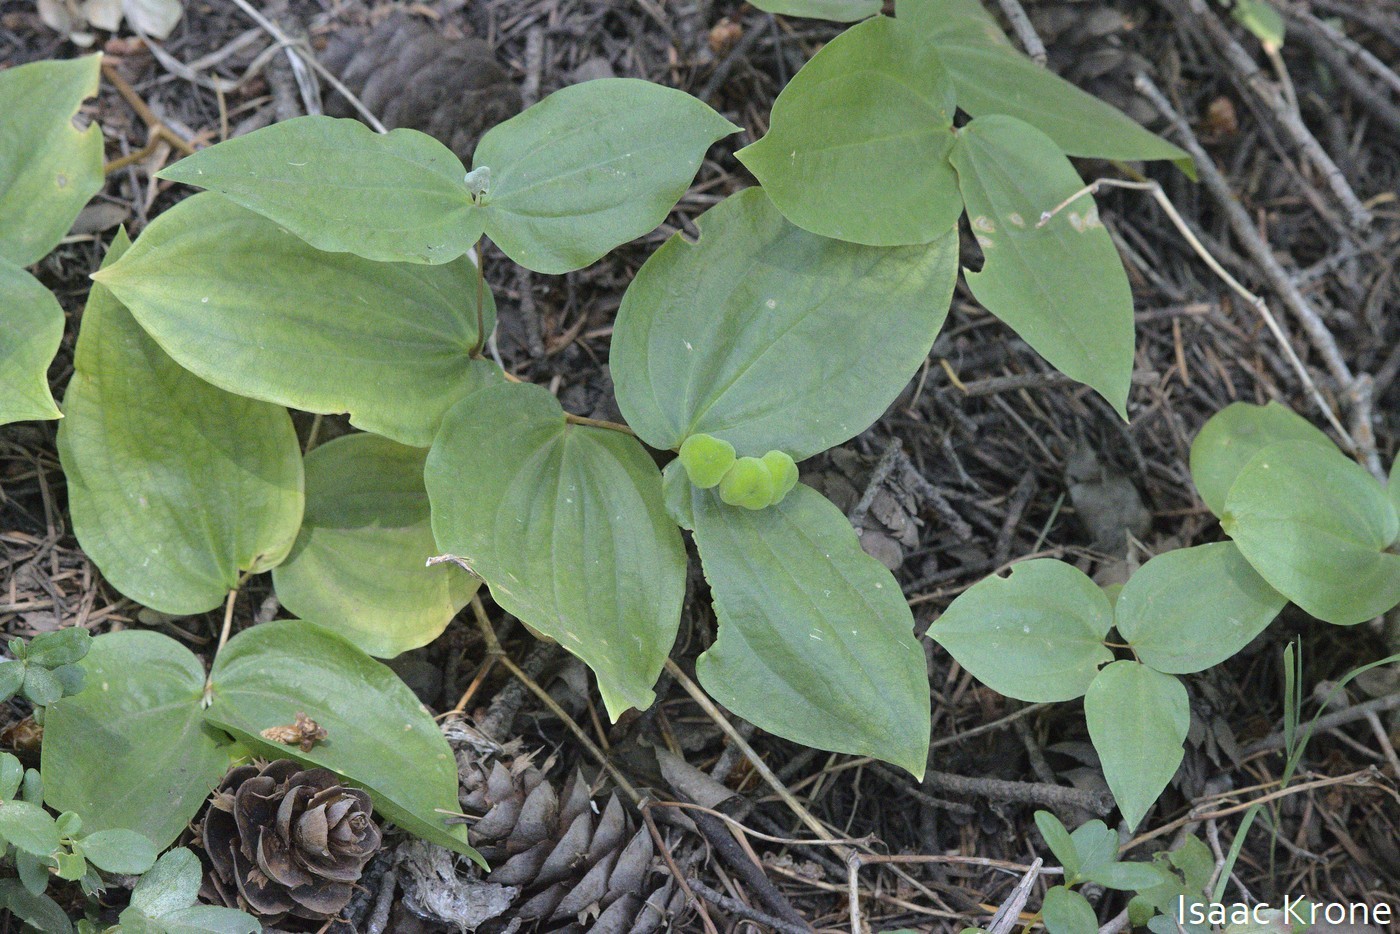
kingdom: Plantae
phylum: Tracheophyta
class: Liliopsida
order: Liliales
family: Liliaceae
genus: Prosartes
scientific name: Prosartes trachycarpa
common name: Rough-fruit fairy-bells
